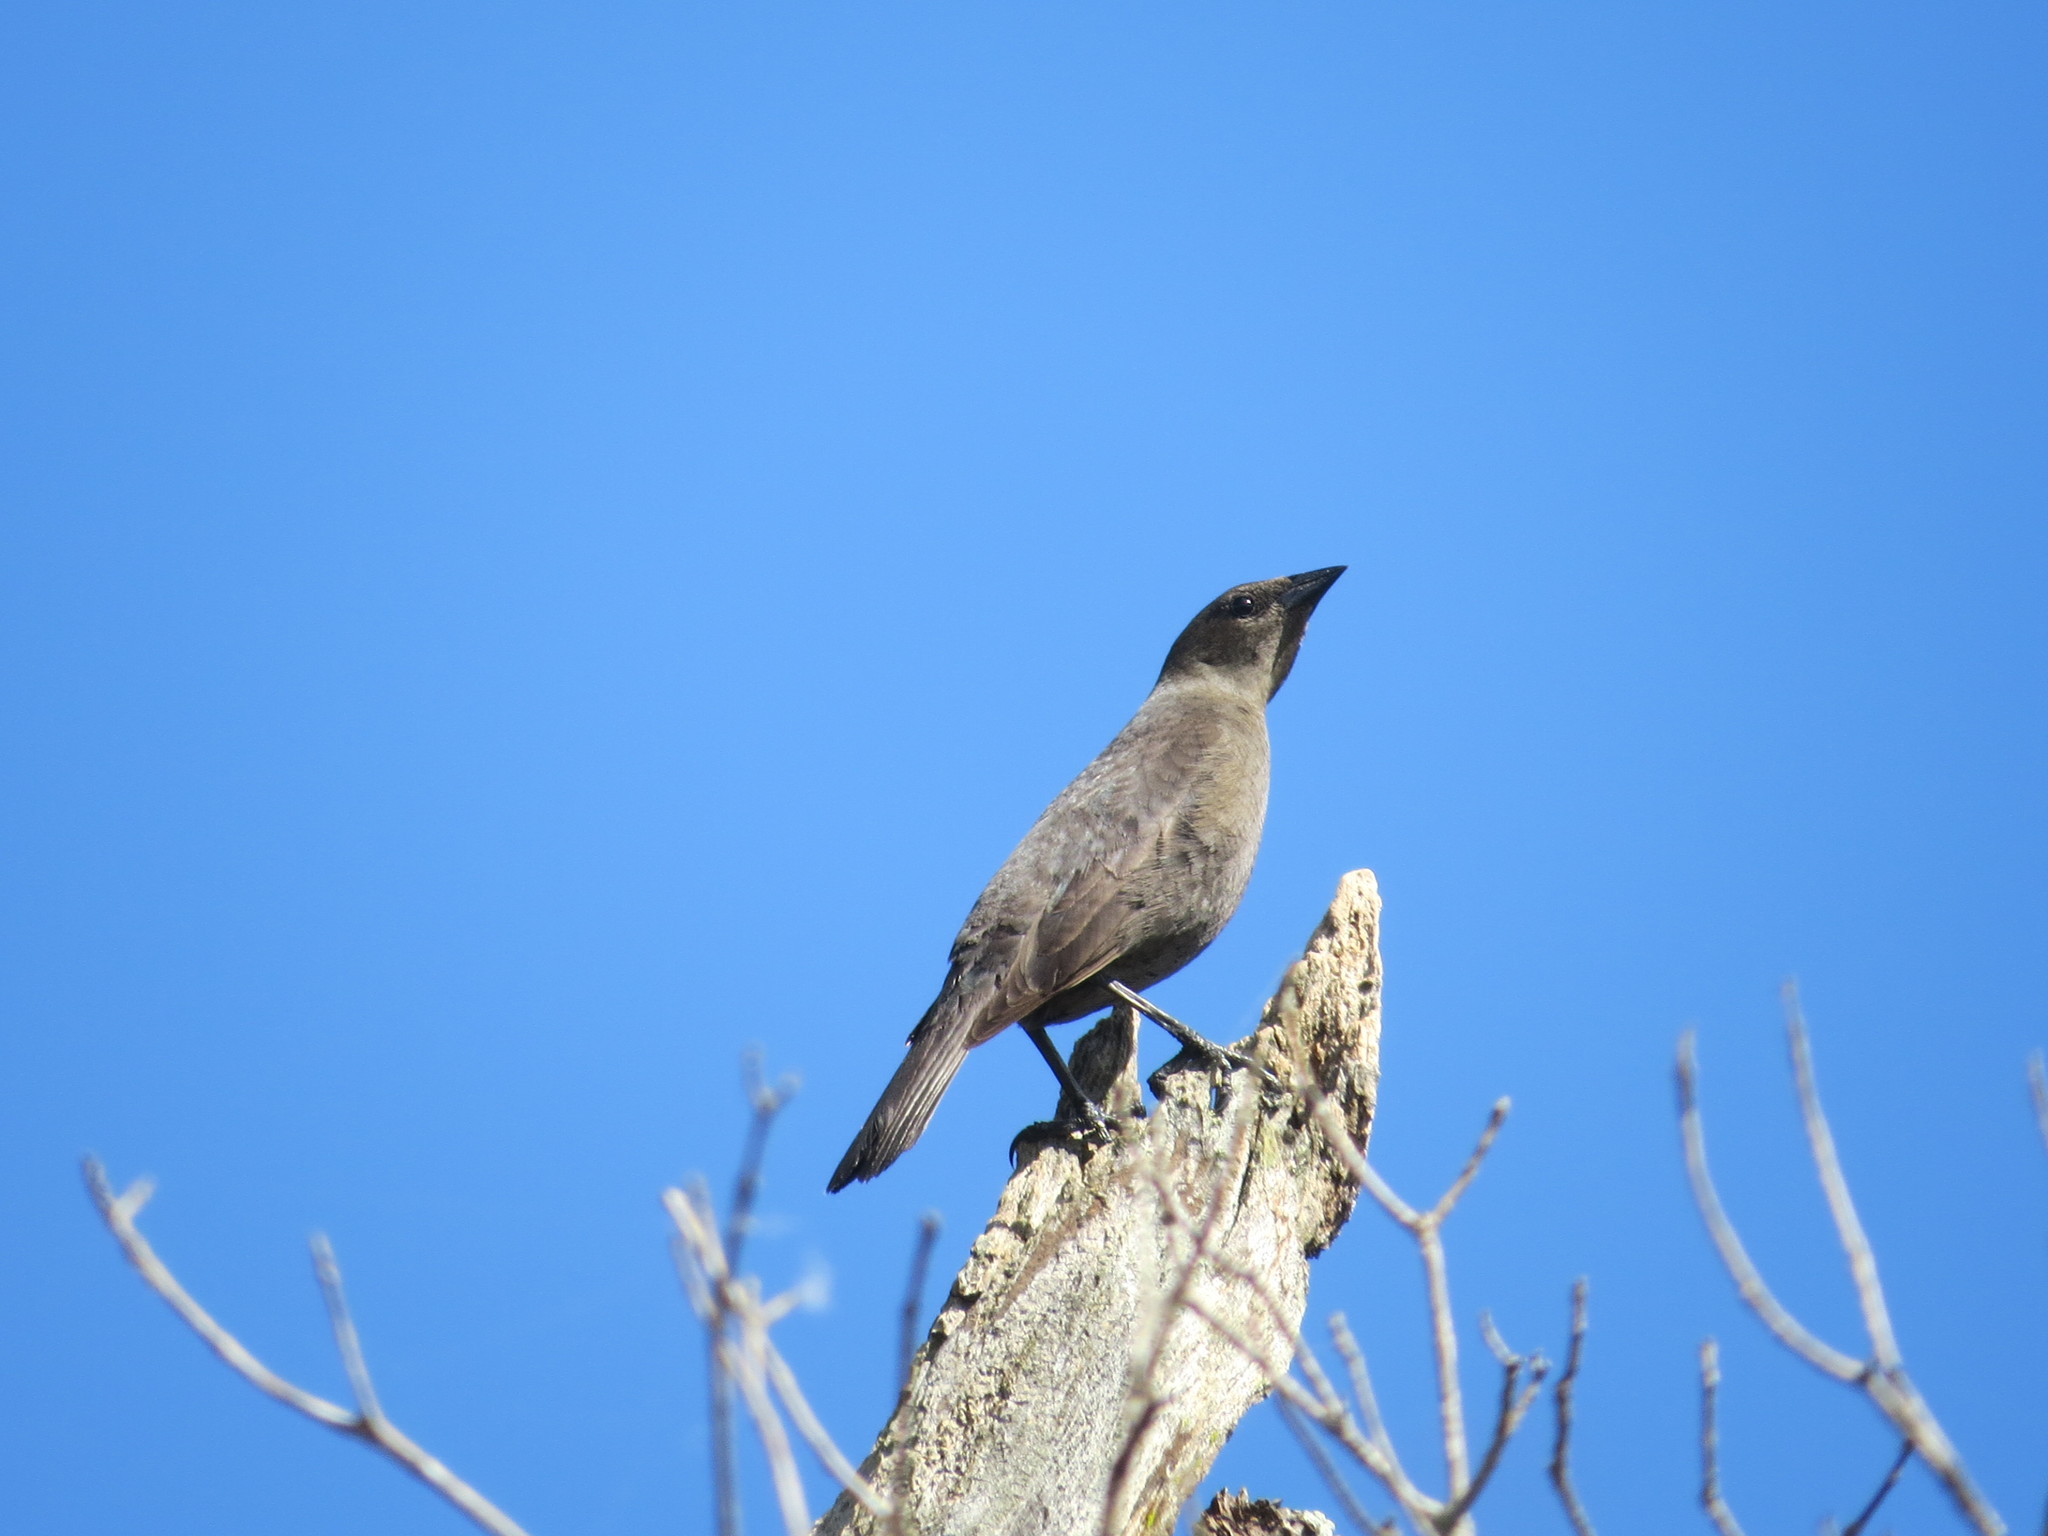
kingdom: Animalia
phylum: Chordata
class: Aves
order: Passeriformes
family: Icteridae
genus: Molothrus
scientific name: Molothrus bonariensis
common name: Shiny cowbird
